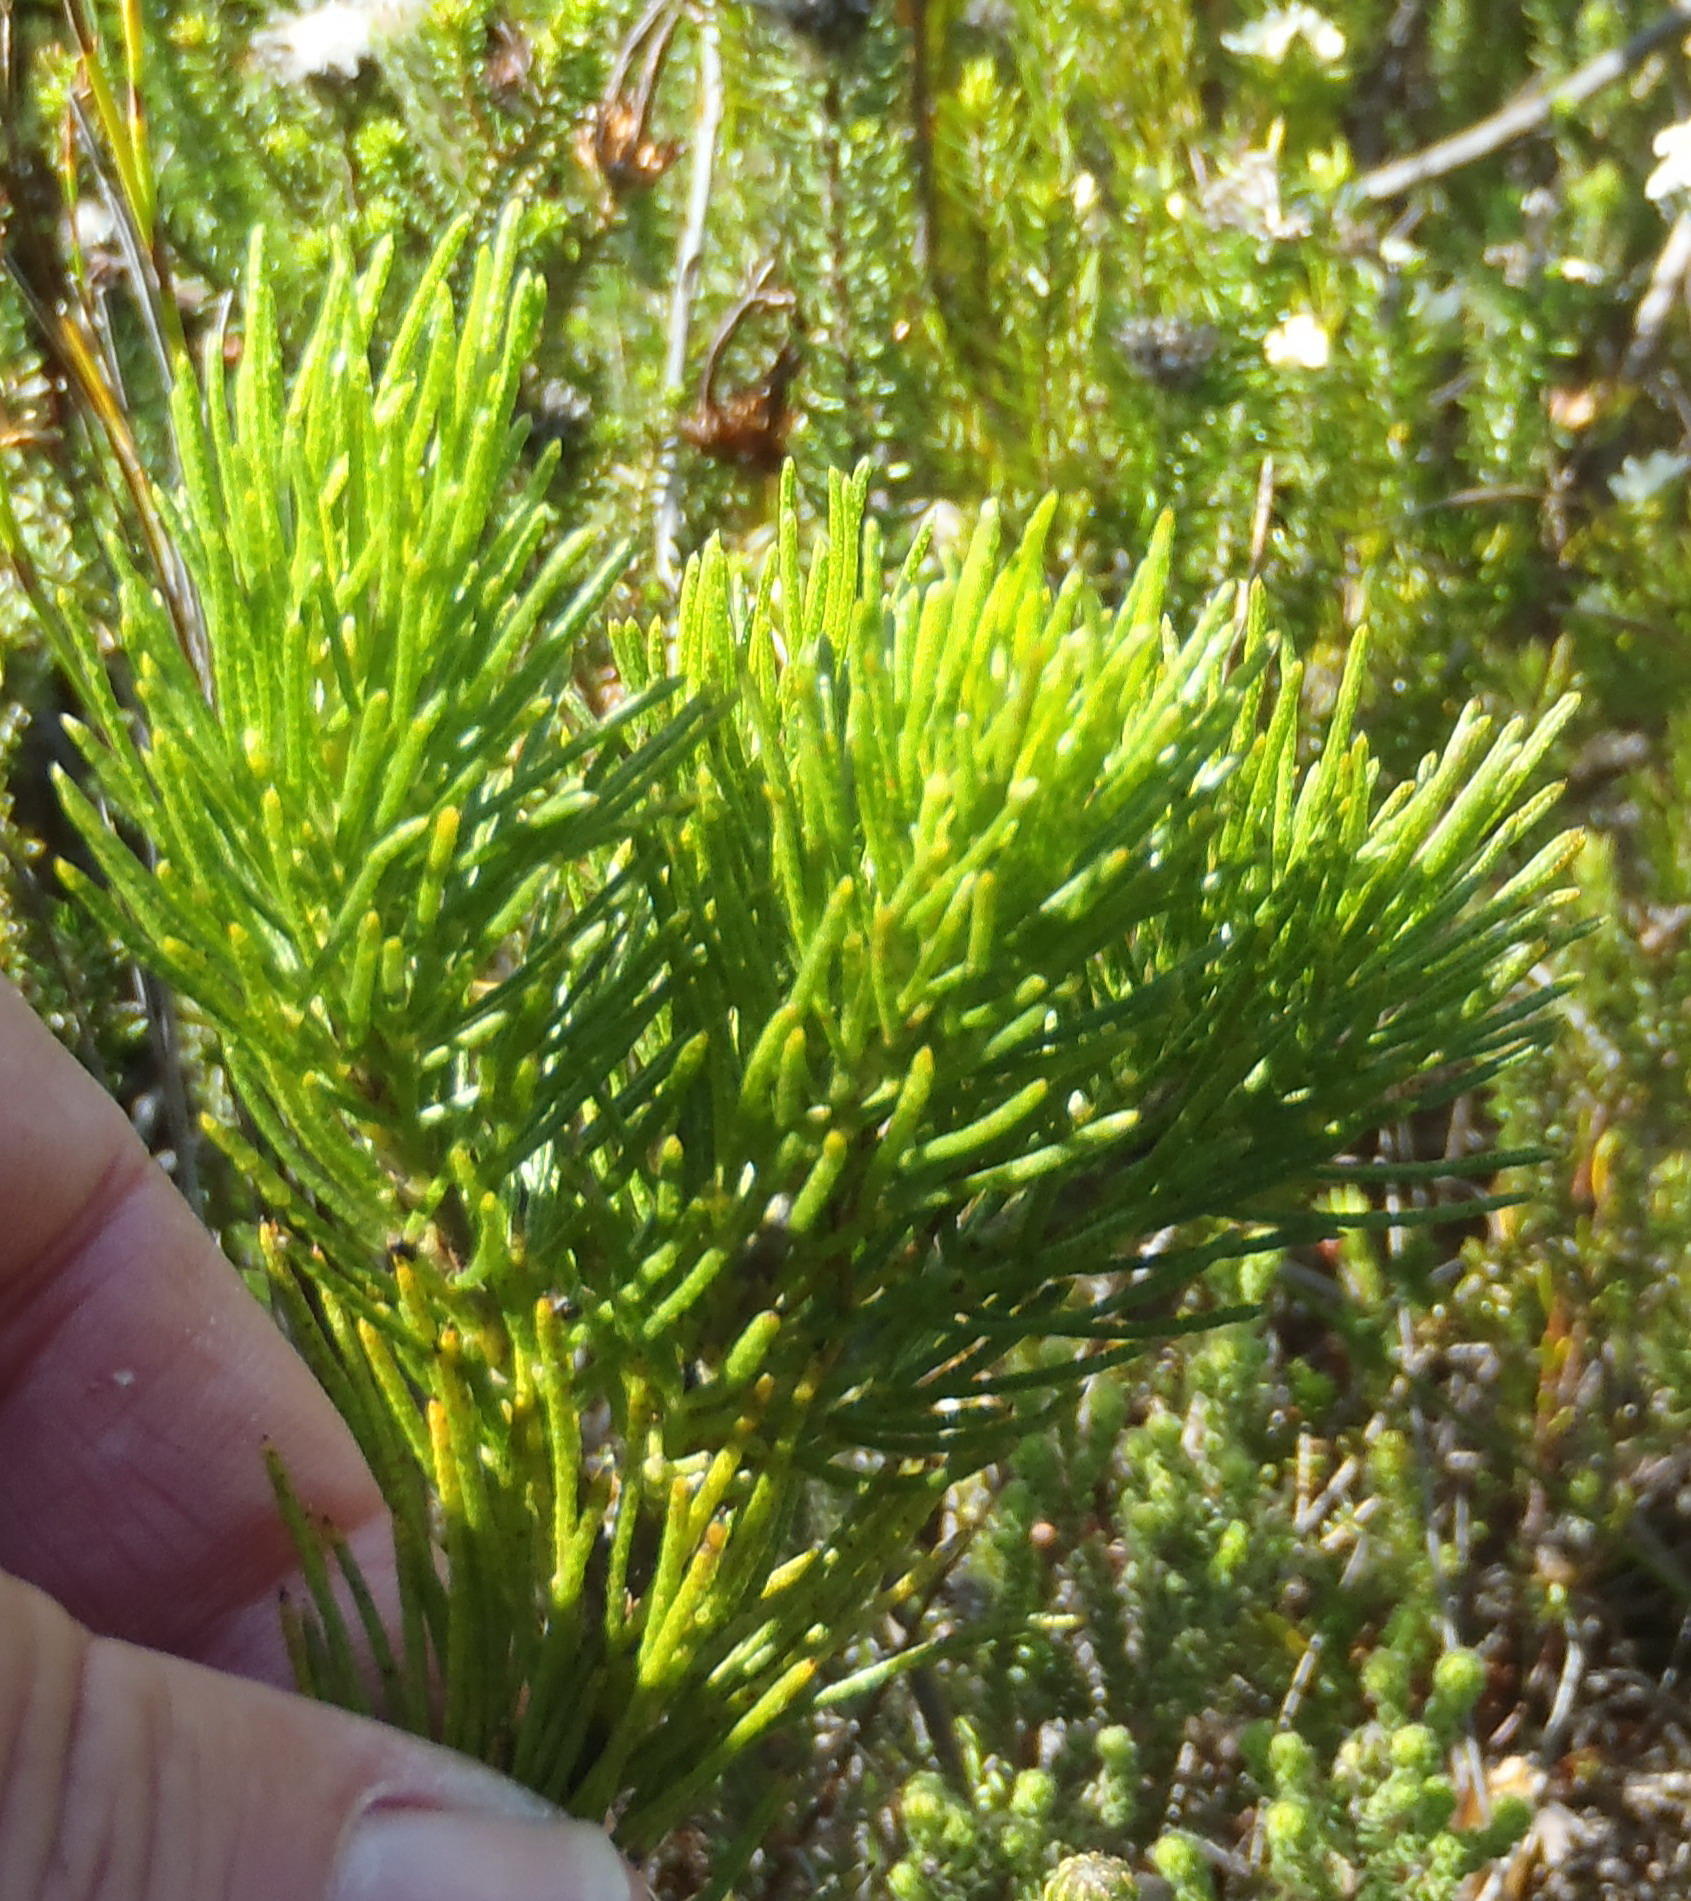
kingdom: Plantae
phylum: Tracheophyta
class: Magnoliopsida
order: Fabales
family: Fabaceae
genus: Psoralea
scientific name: Psoralea speciosa
